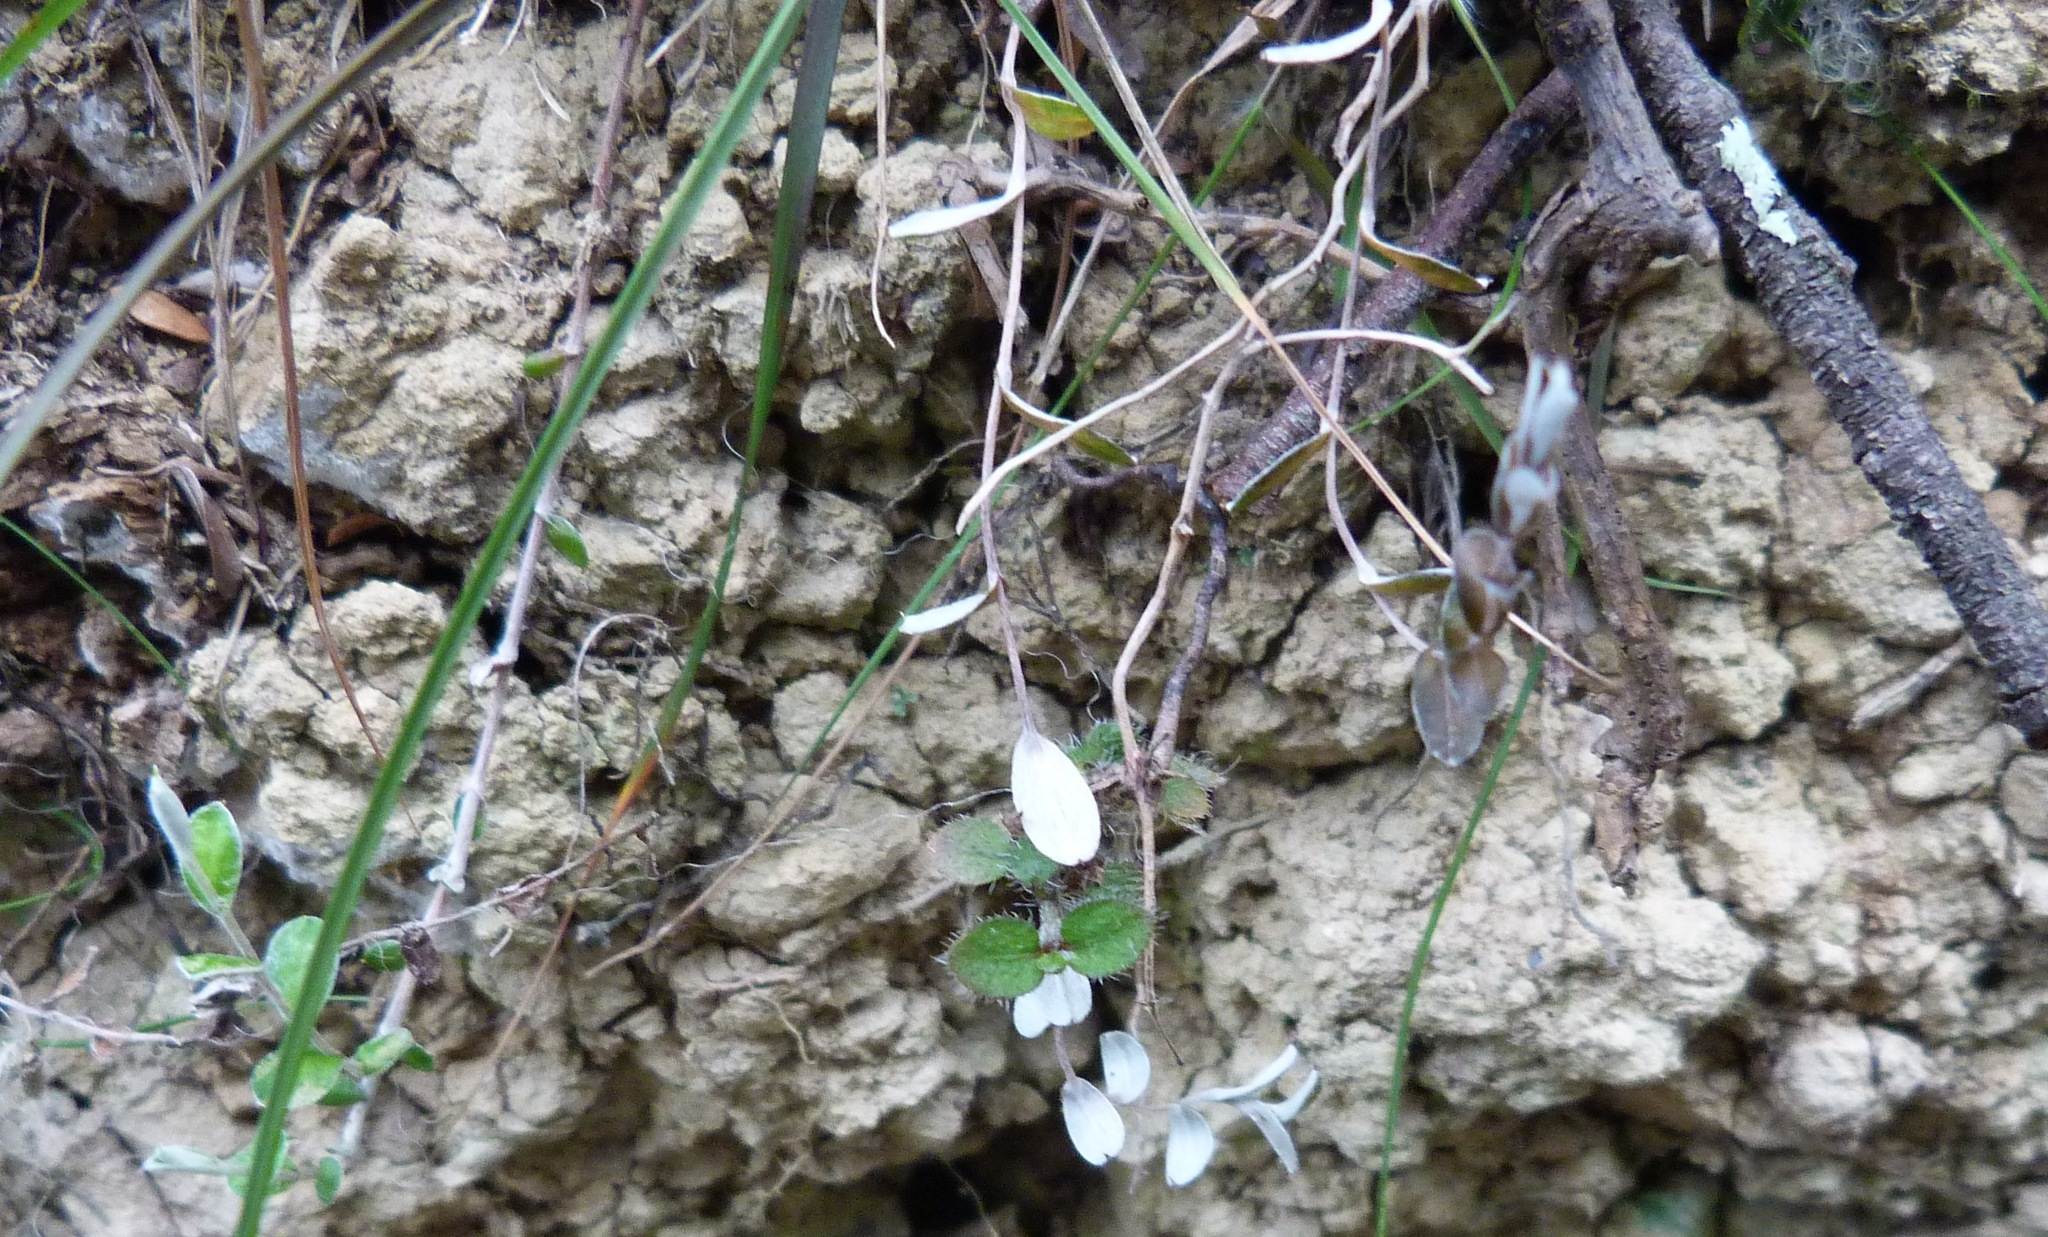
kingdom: Plantae
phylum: Tracheophyta
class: Magnoliopsida
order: Asterales
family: Asteraceae
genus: Helichrysum
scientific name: Helichrysum filicaule
